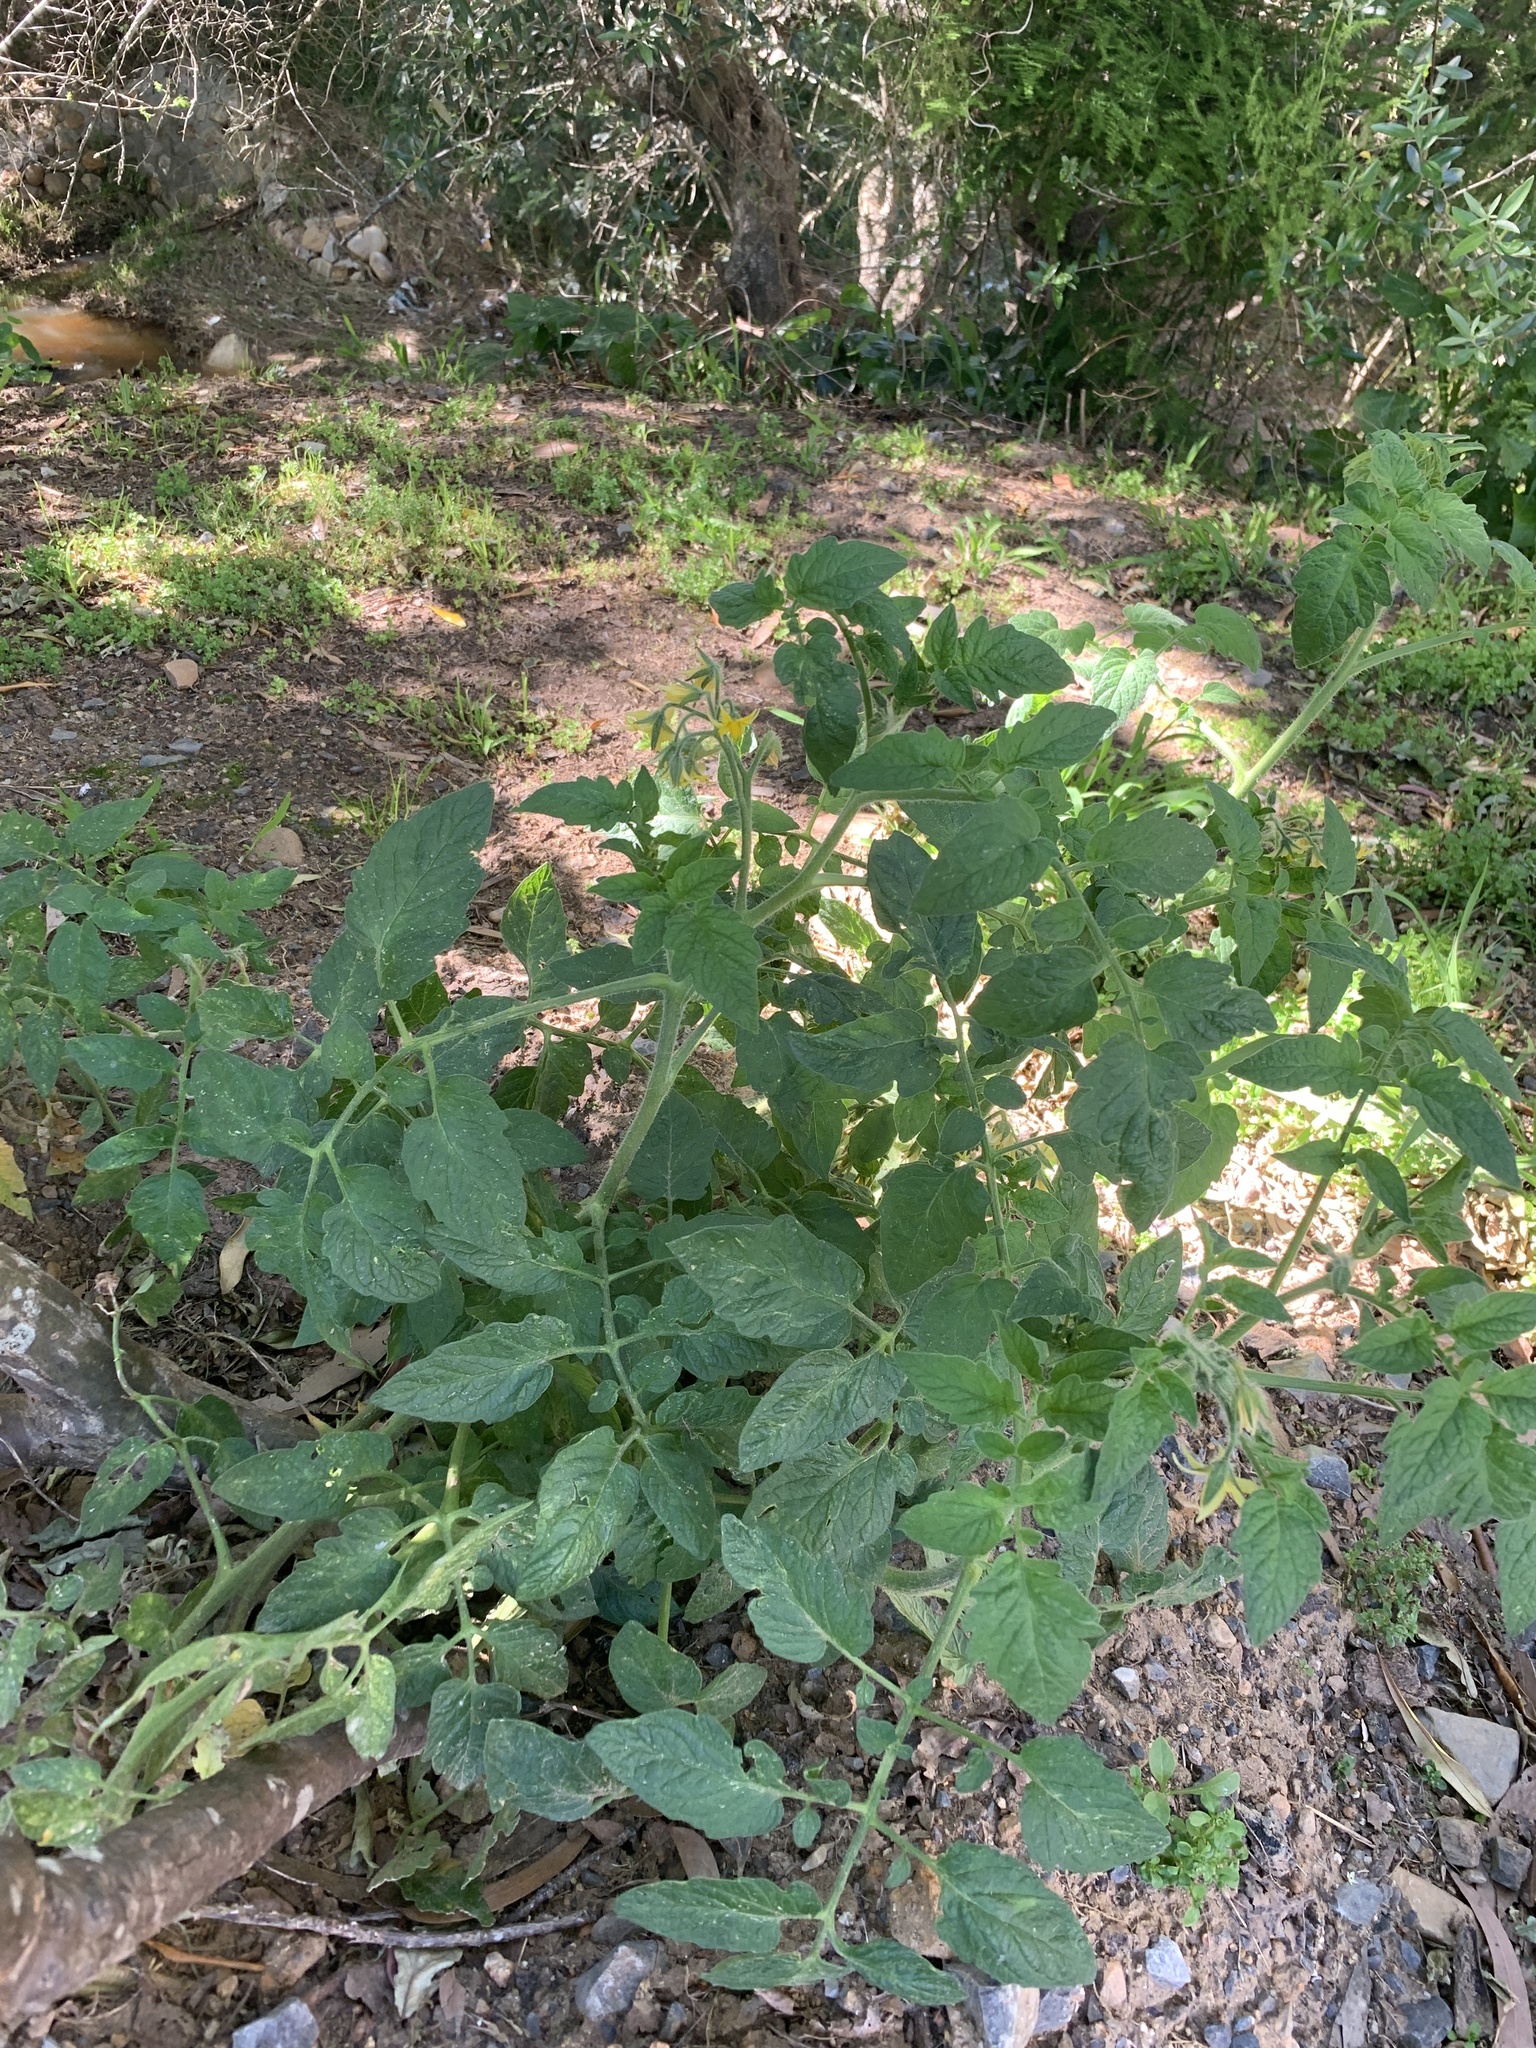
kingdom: Plantae
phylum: Tracheophyta
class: Magnoliopsida
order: Solanales
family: Solanaceae
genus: Solanum
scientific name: Solanum lycopersicum
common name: Garden tomato
